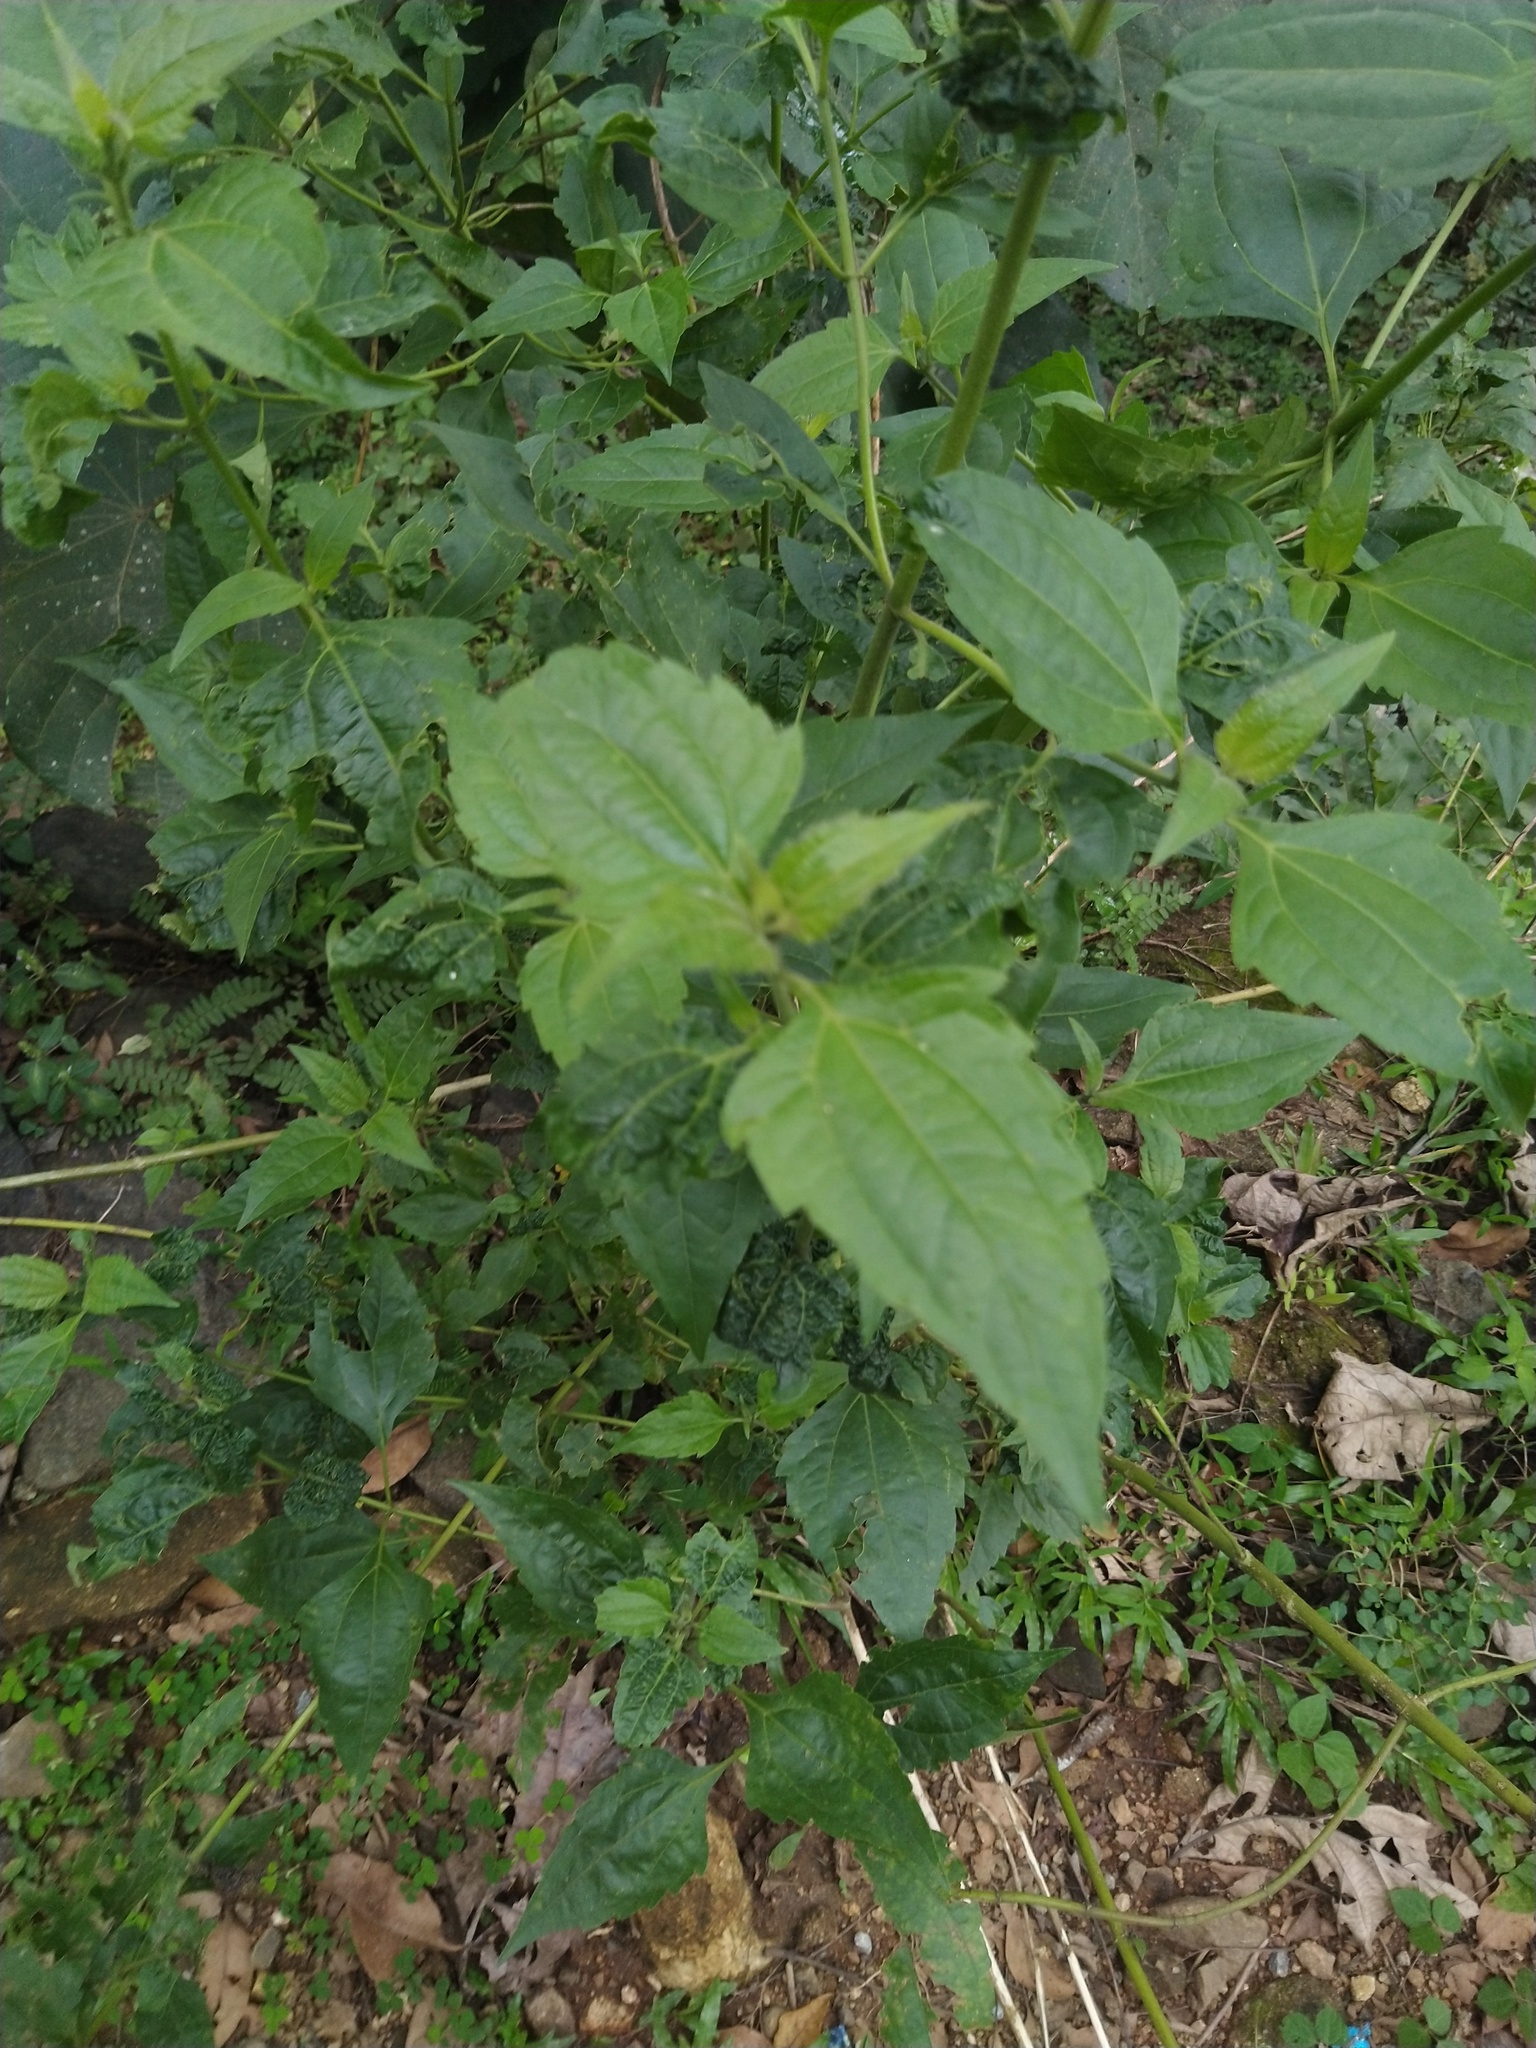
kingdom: Plantae
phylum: Tracheophyta
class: Magnoliopsida
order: Asterales
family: Asteraceae
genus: Chromolaena
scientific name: Chromolaena odorata
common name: Siamweed
